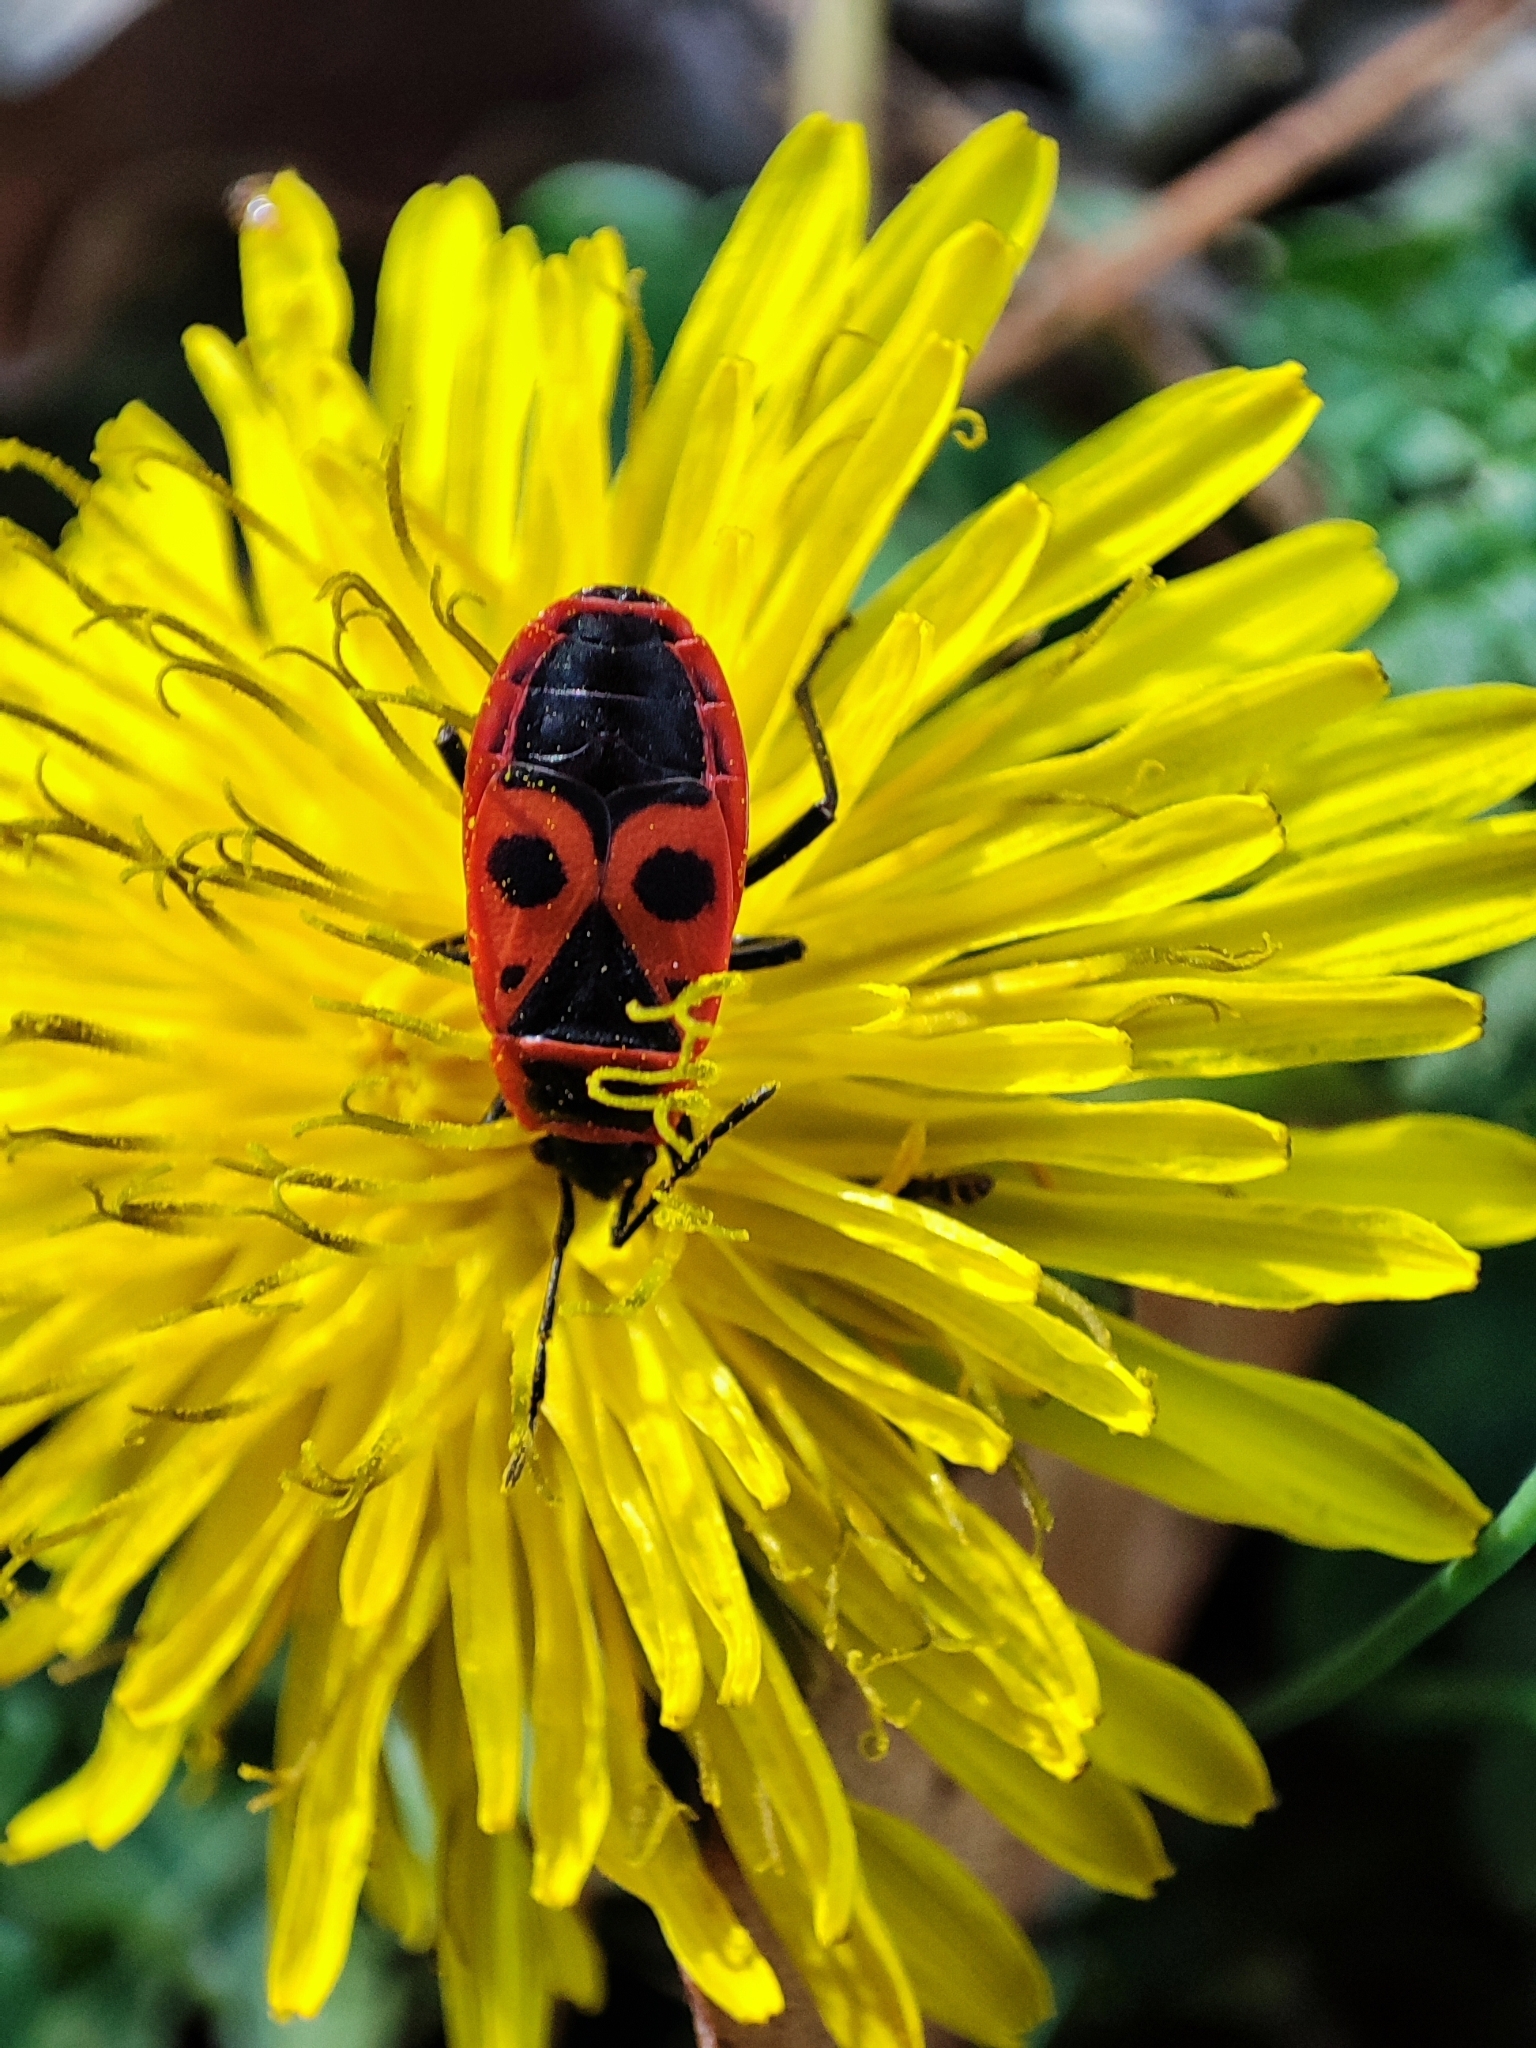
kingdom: Animalia
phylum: Arthropoda
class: Insecta
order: Hemiptera
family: Pyrrhocoridae
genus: Pyrrhocoris
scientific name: Pyrrhocoris apterus
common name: Firebug
